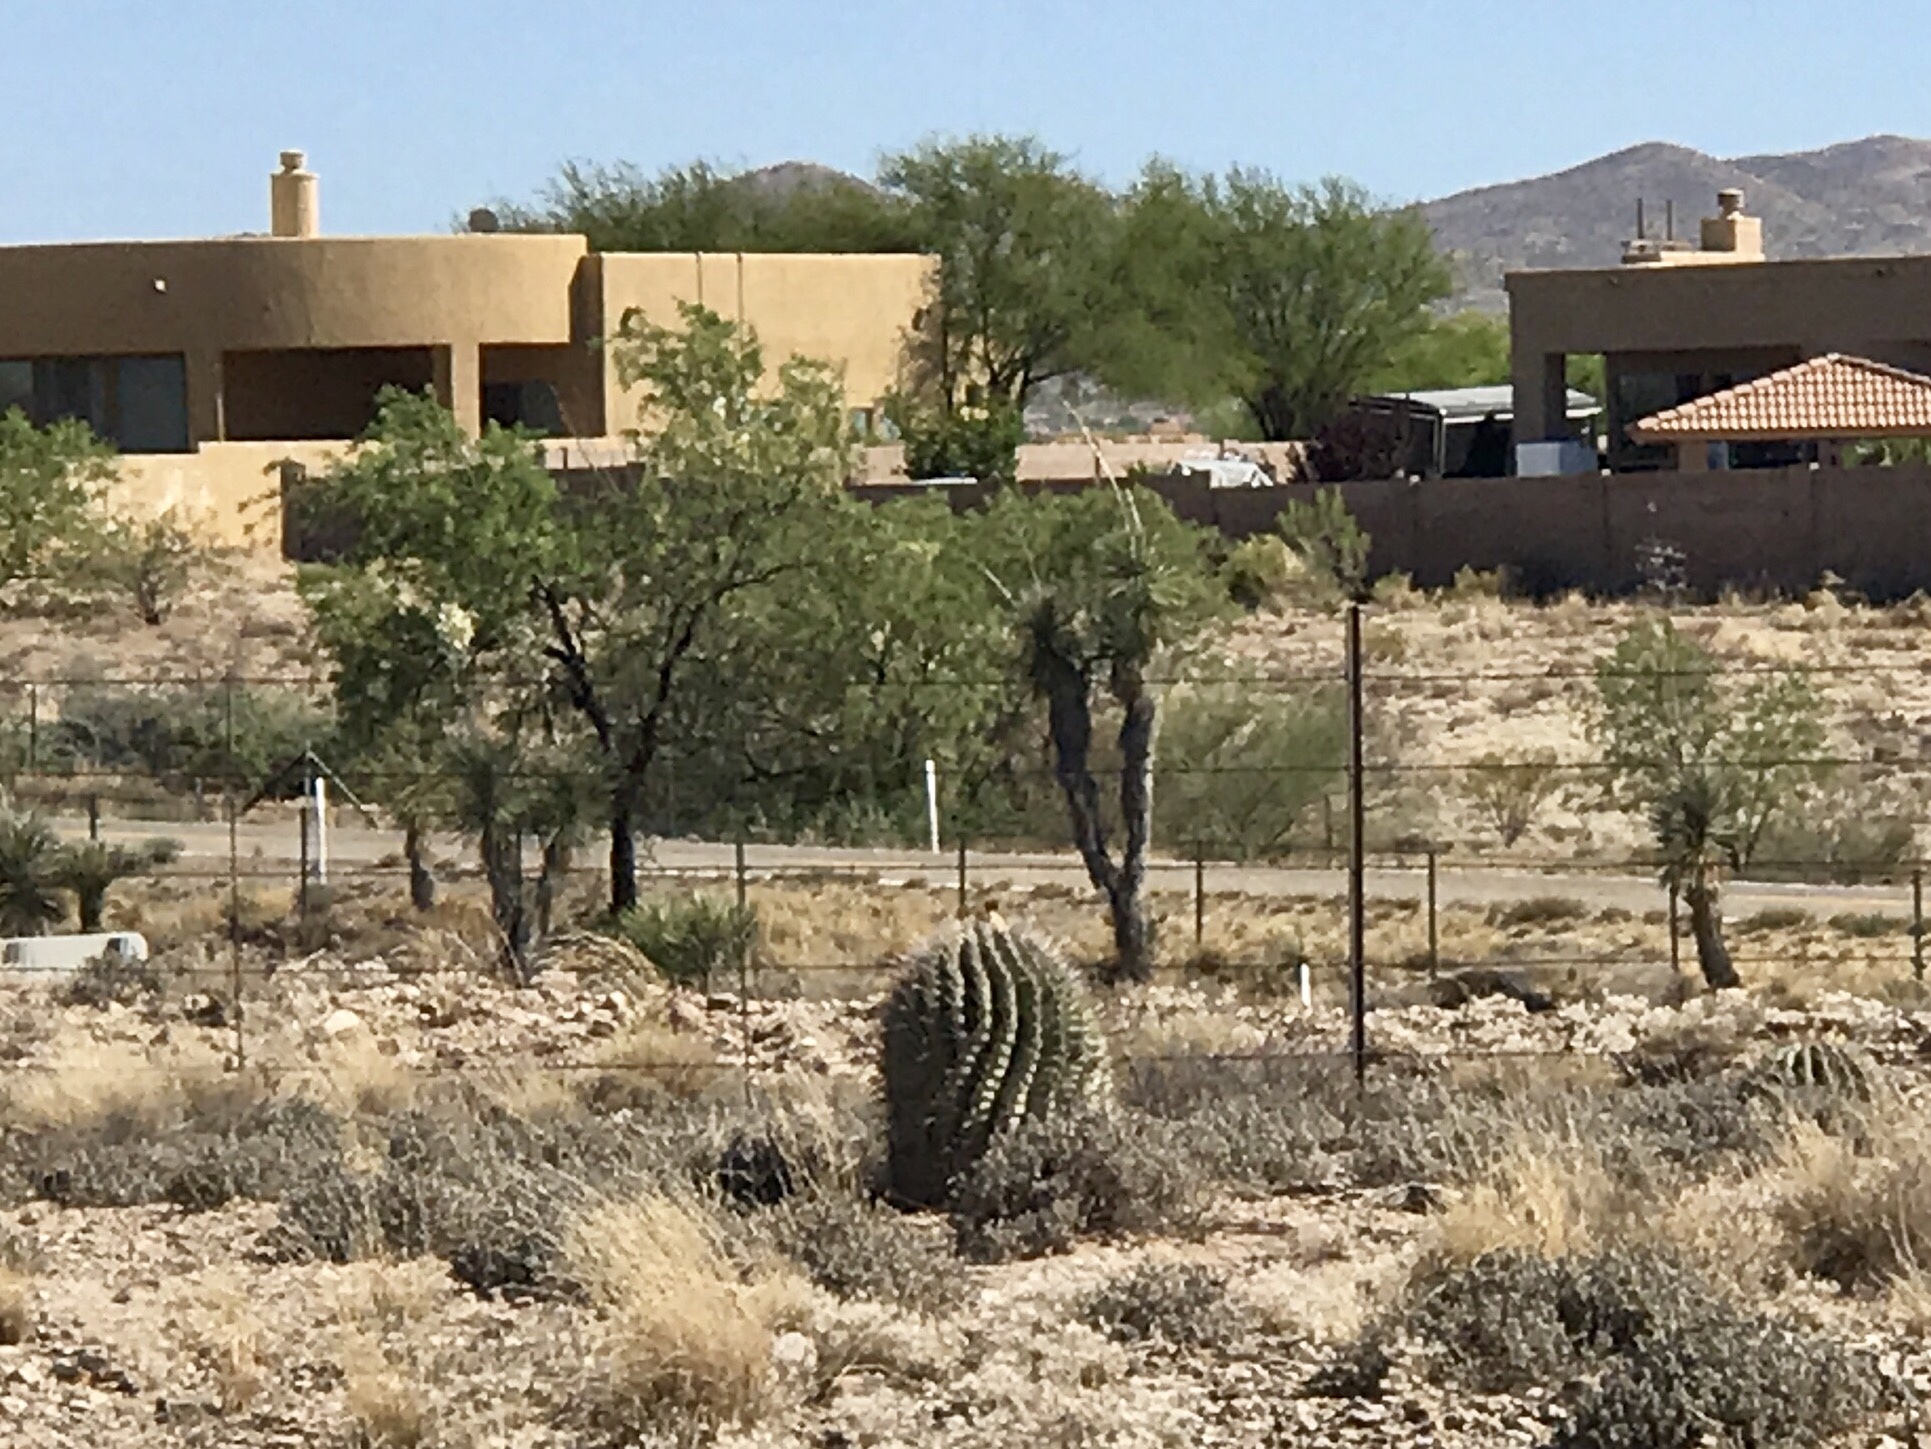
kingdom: Plantae
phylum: Tracheophyta
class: Magnoliopsida
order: Caryophyllales
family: Cactaceae
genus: Ferocactus
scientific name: Ferocactus wislizeni
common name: Candy barrel cactus
